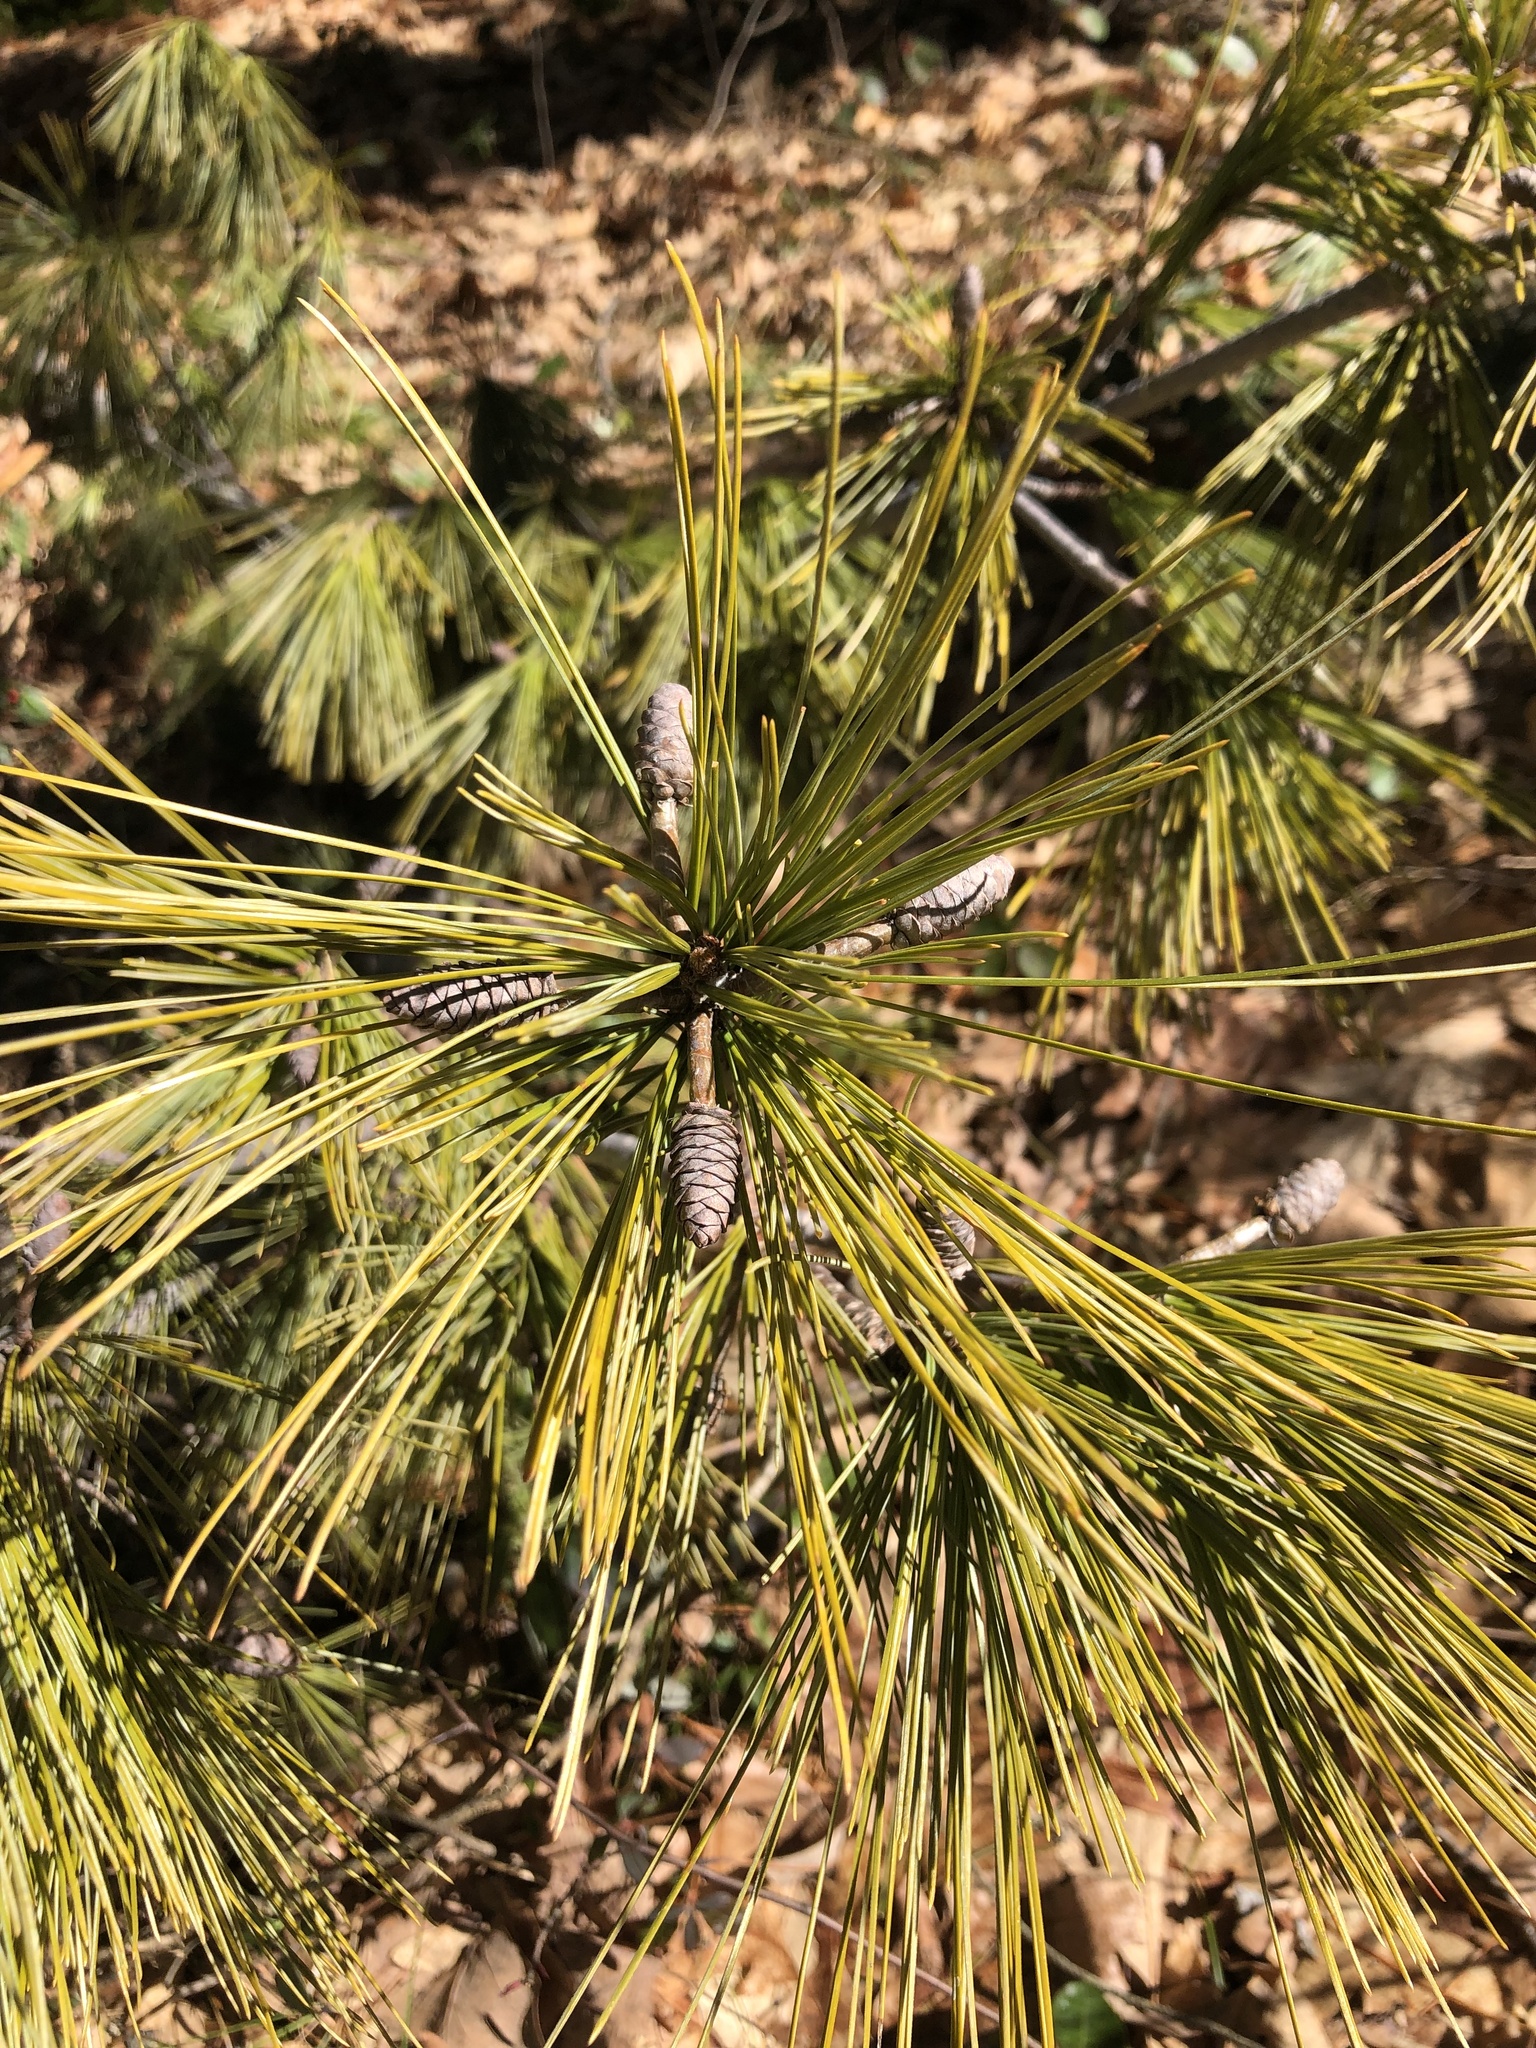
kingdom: Plantae
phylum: Tracheophyta
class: Pinopsida
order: Pinales
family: Pinaceae
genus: Pinus
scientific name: Pinus strobus
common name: Weymouth pine
